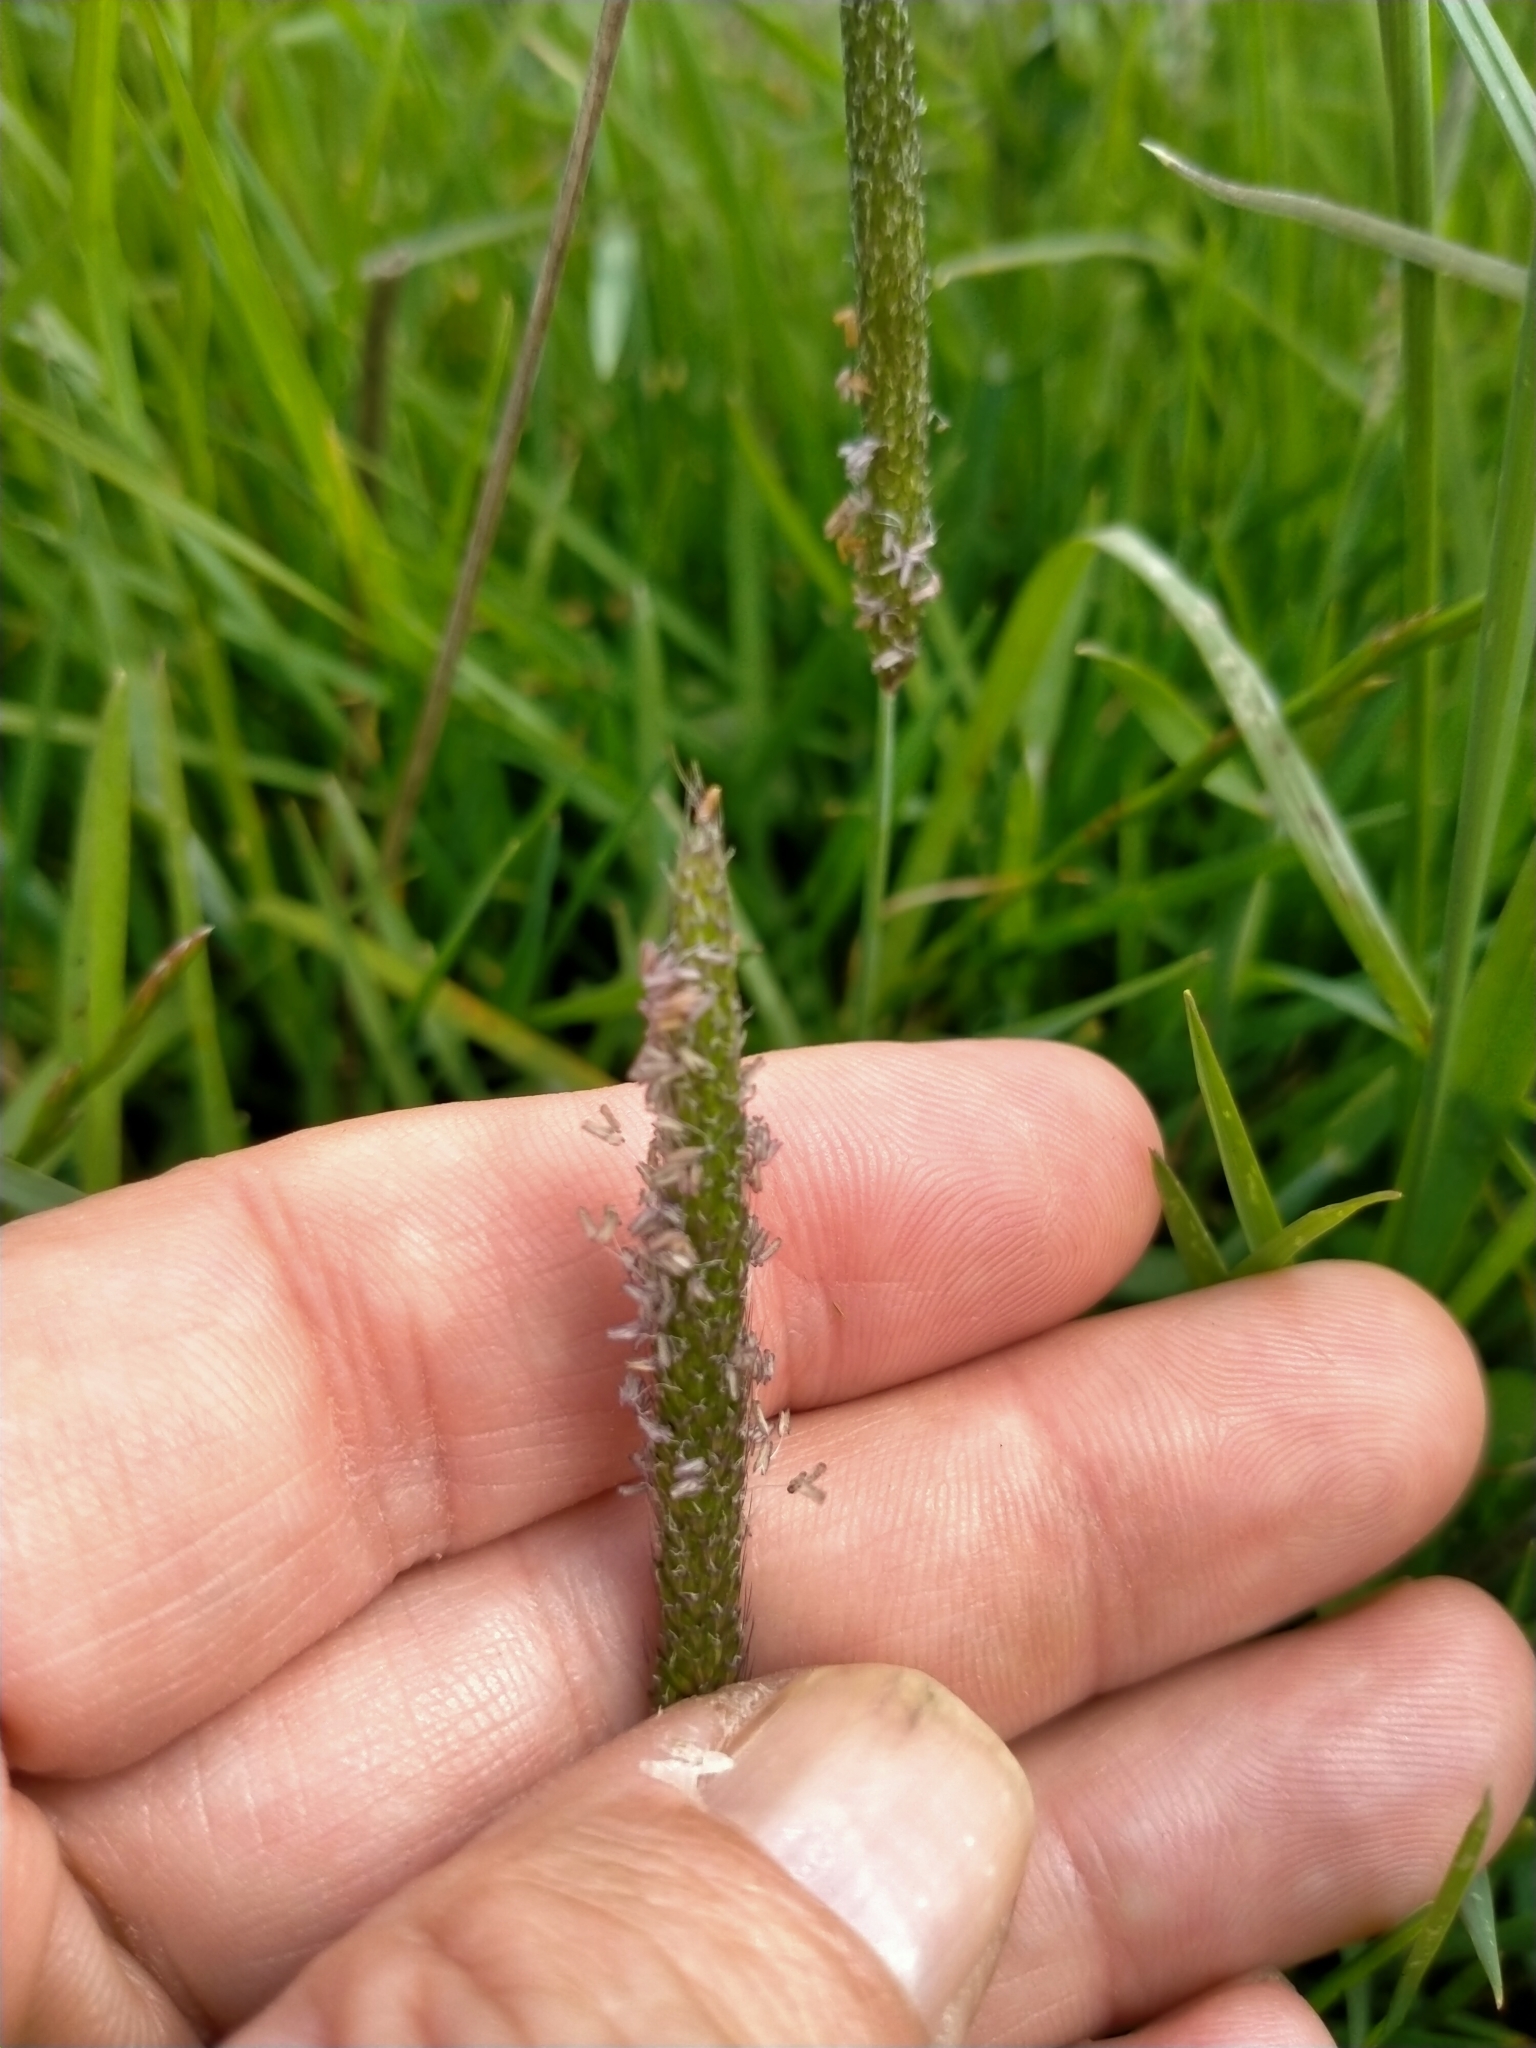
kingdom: Plantae
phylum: Tracheophyta
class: Liliopsida
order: Poales
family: Poaceae
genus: Alopecurus
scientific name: Alopecurus geniculatus
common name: Water foxtail
